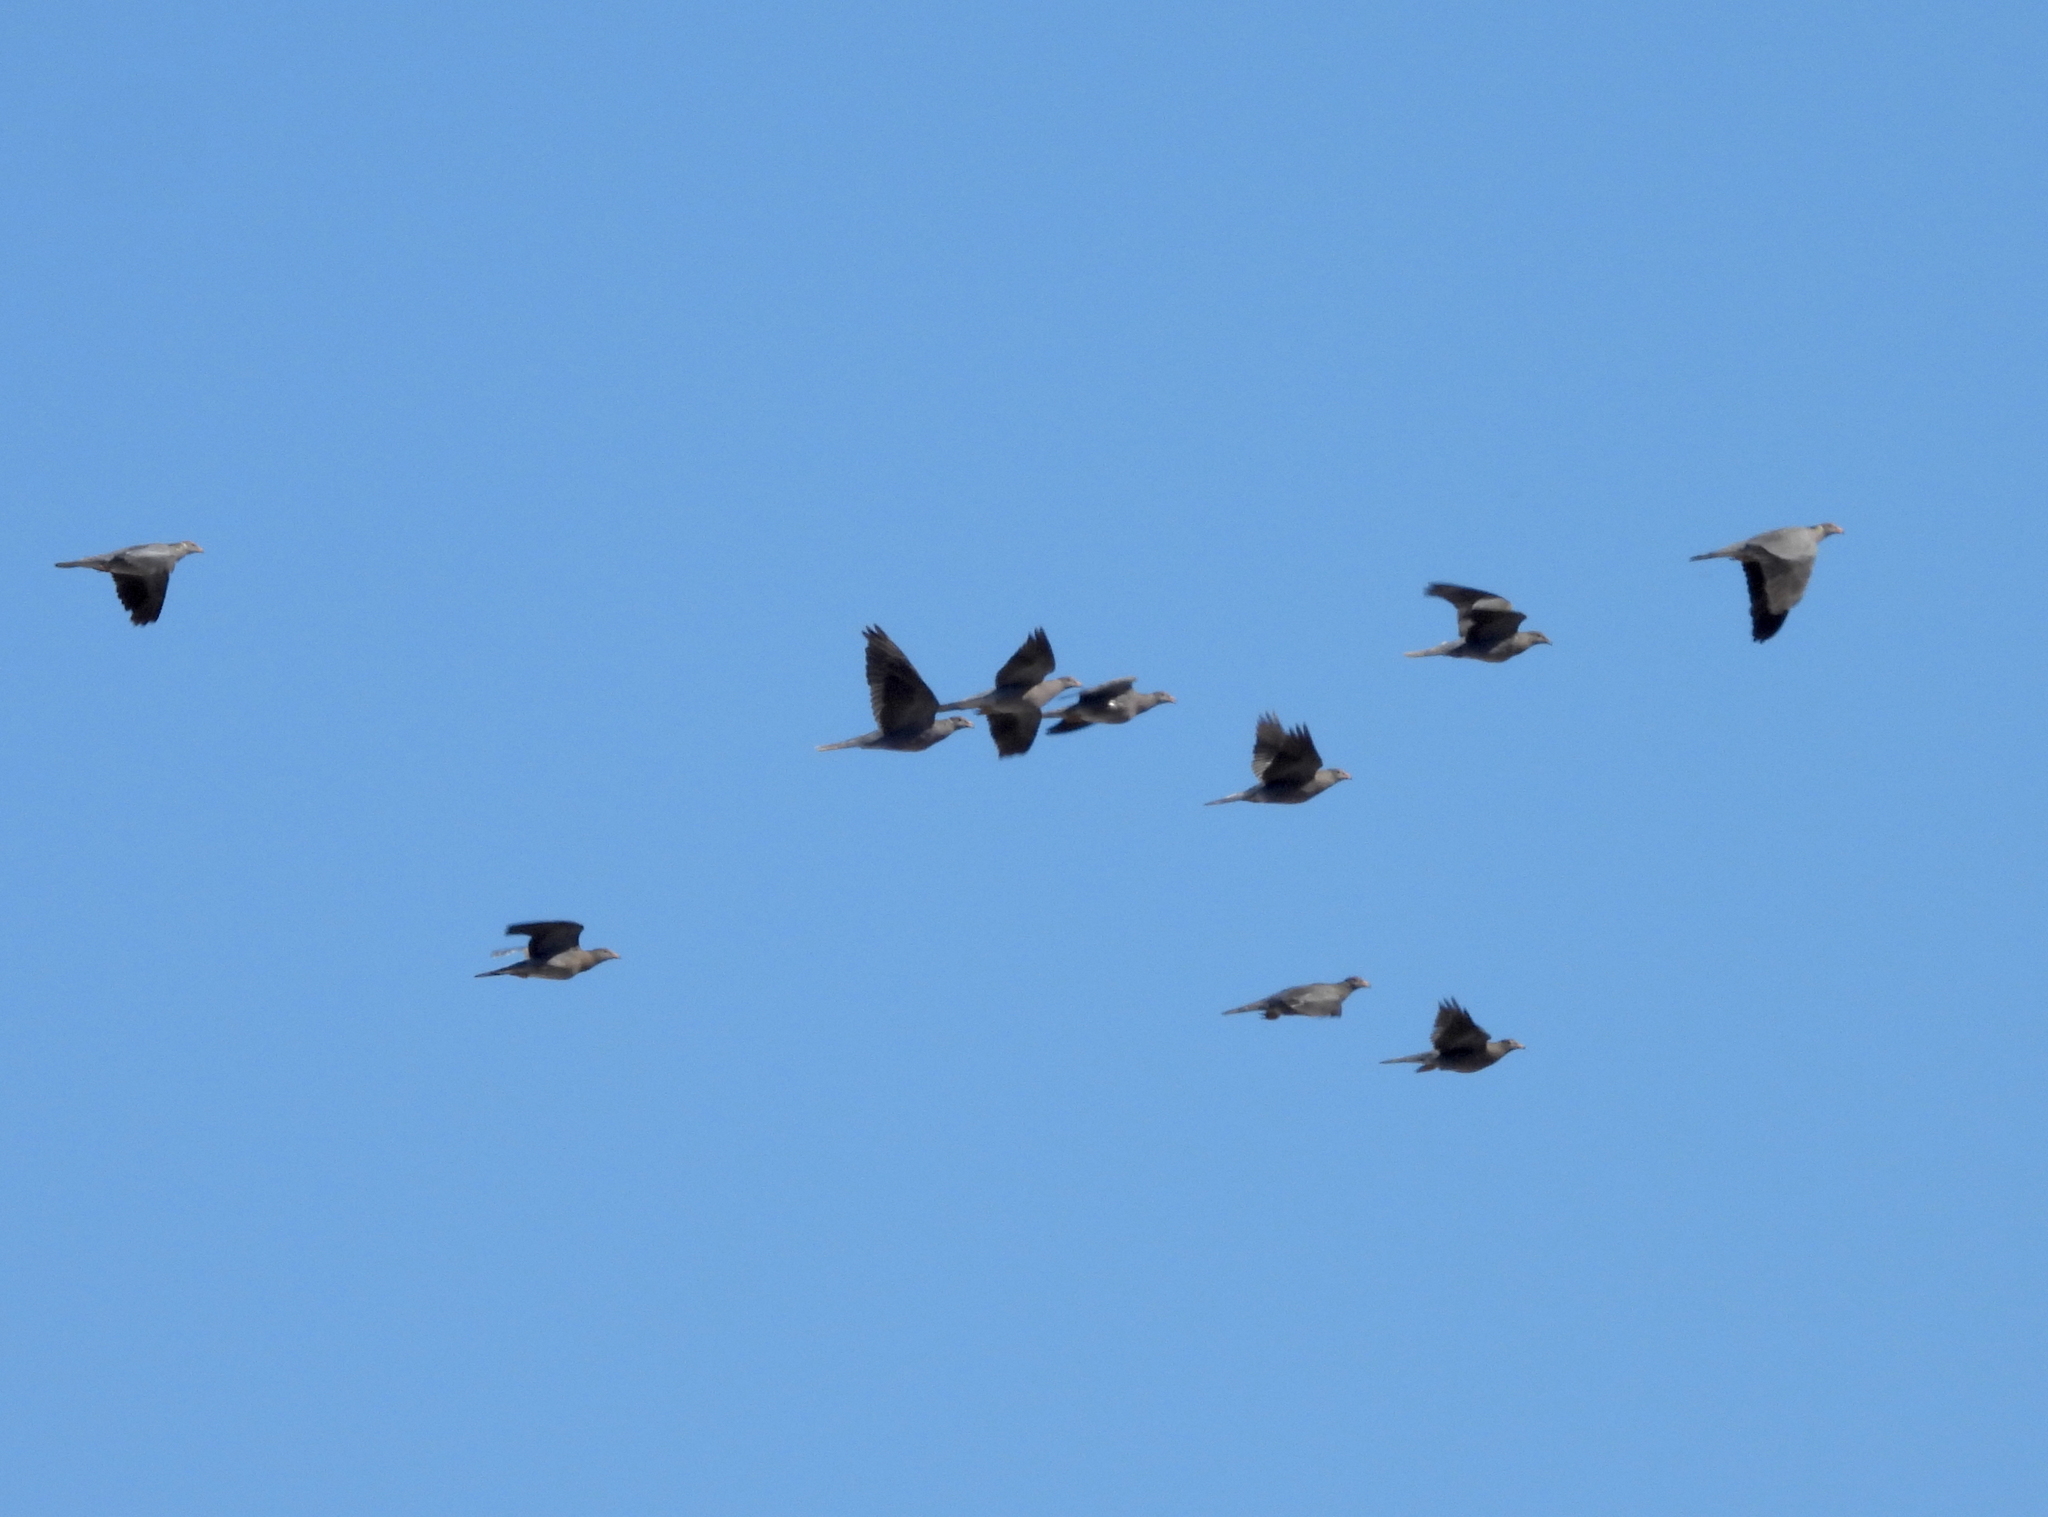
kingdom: Animalia
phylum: Chordata
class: Aves
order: Columbiformes
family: Columbidae
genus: Patagioenas
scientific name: Patagioenas fasciata
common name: Band-tailed pigeon
